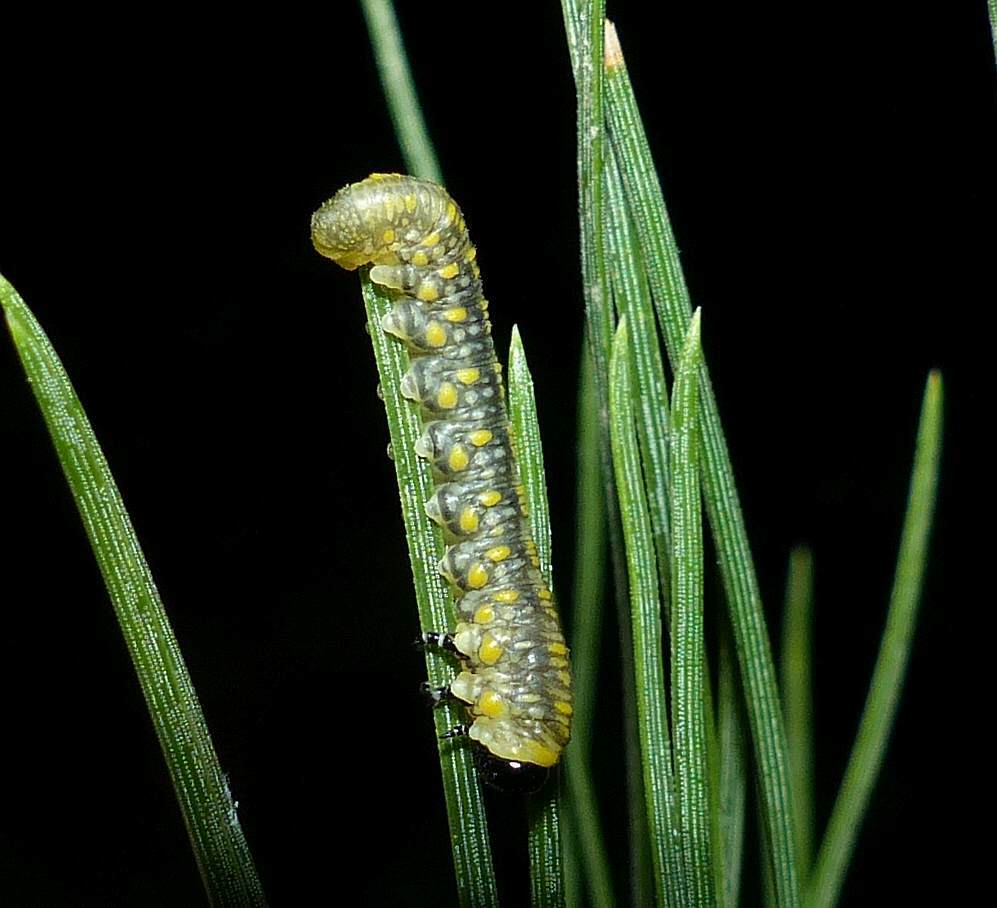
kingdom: Animalia
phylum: Arthropoda
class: Insecta
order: Hymenoptera
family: Diprionidae
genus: Diprion
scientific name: Diprion similis
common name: Pine sawfly
